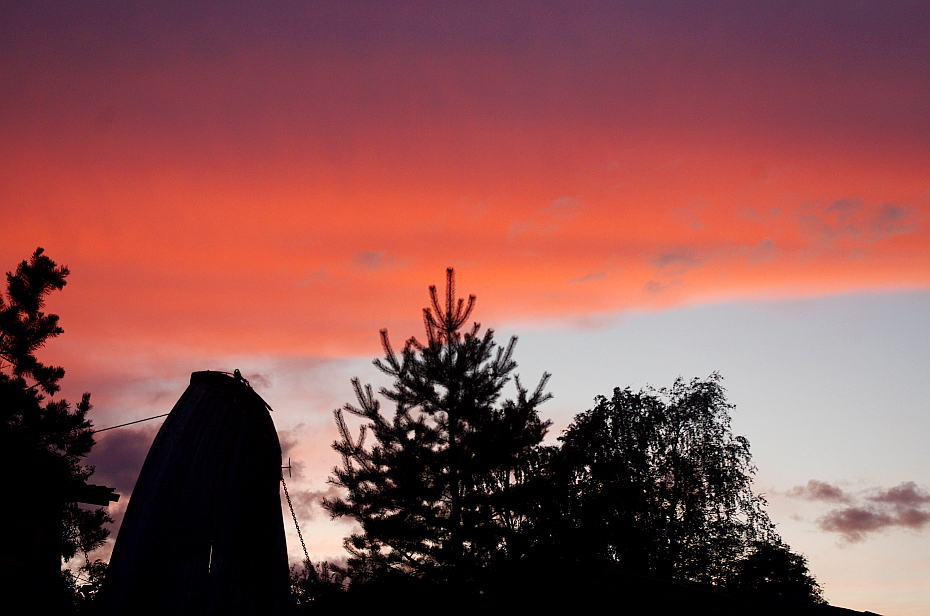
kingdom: Plantae
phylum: Tracheophyta
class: Pinopsida
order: Pinales
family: Pinaceae
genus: Pinus
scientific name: Pinus sylvestris
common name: Scots pine
